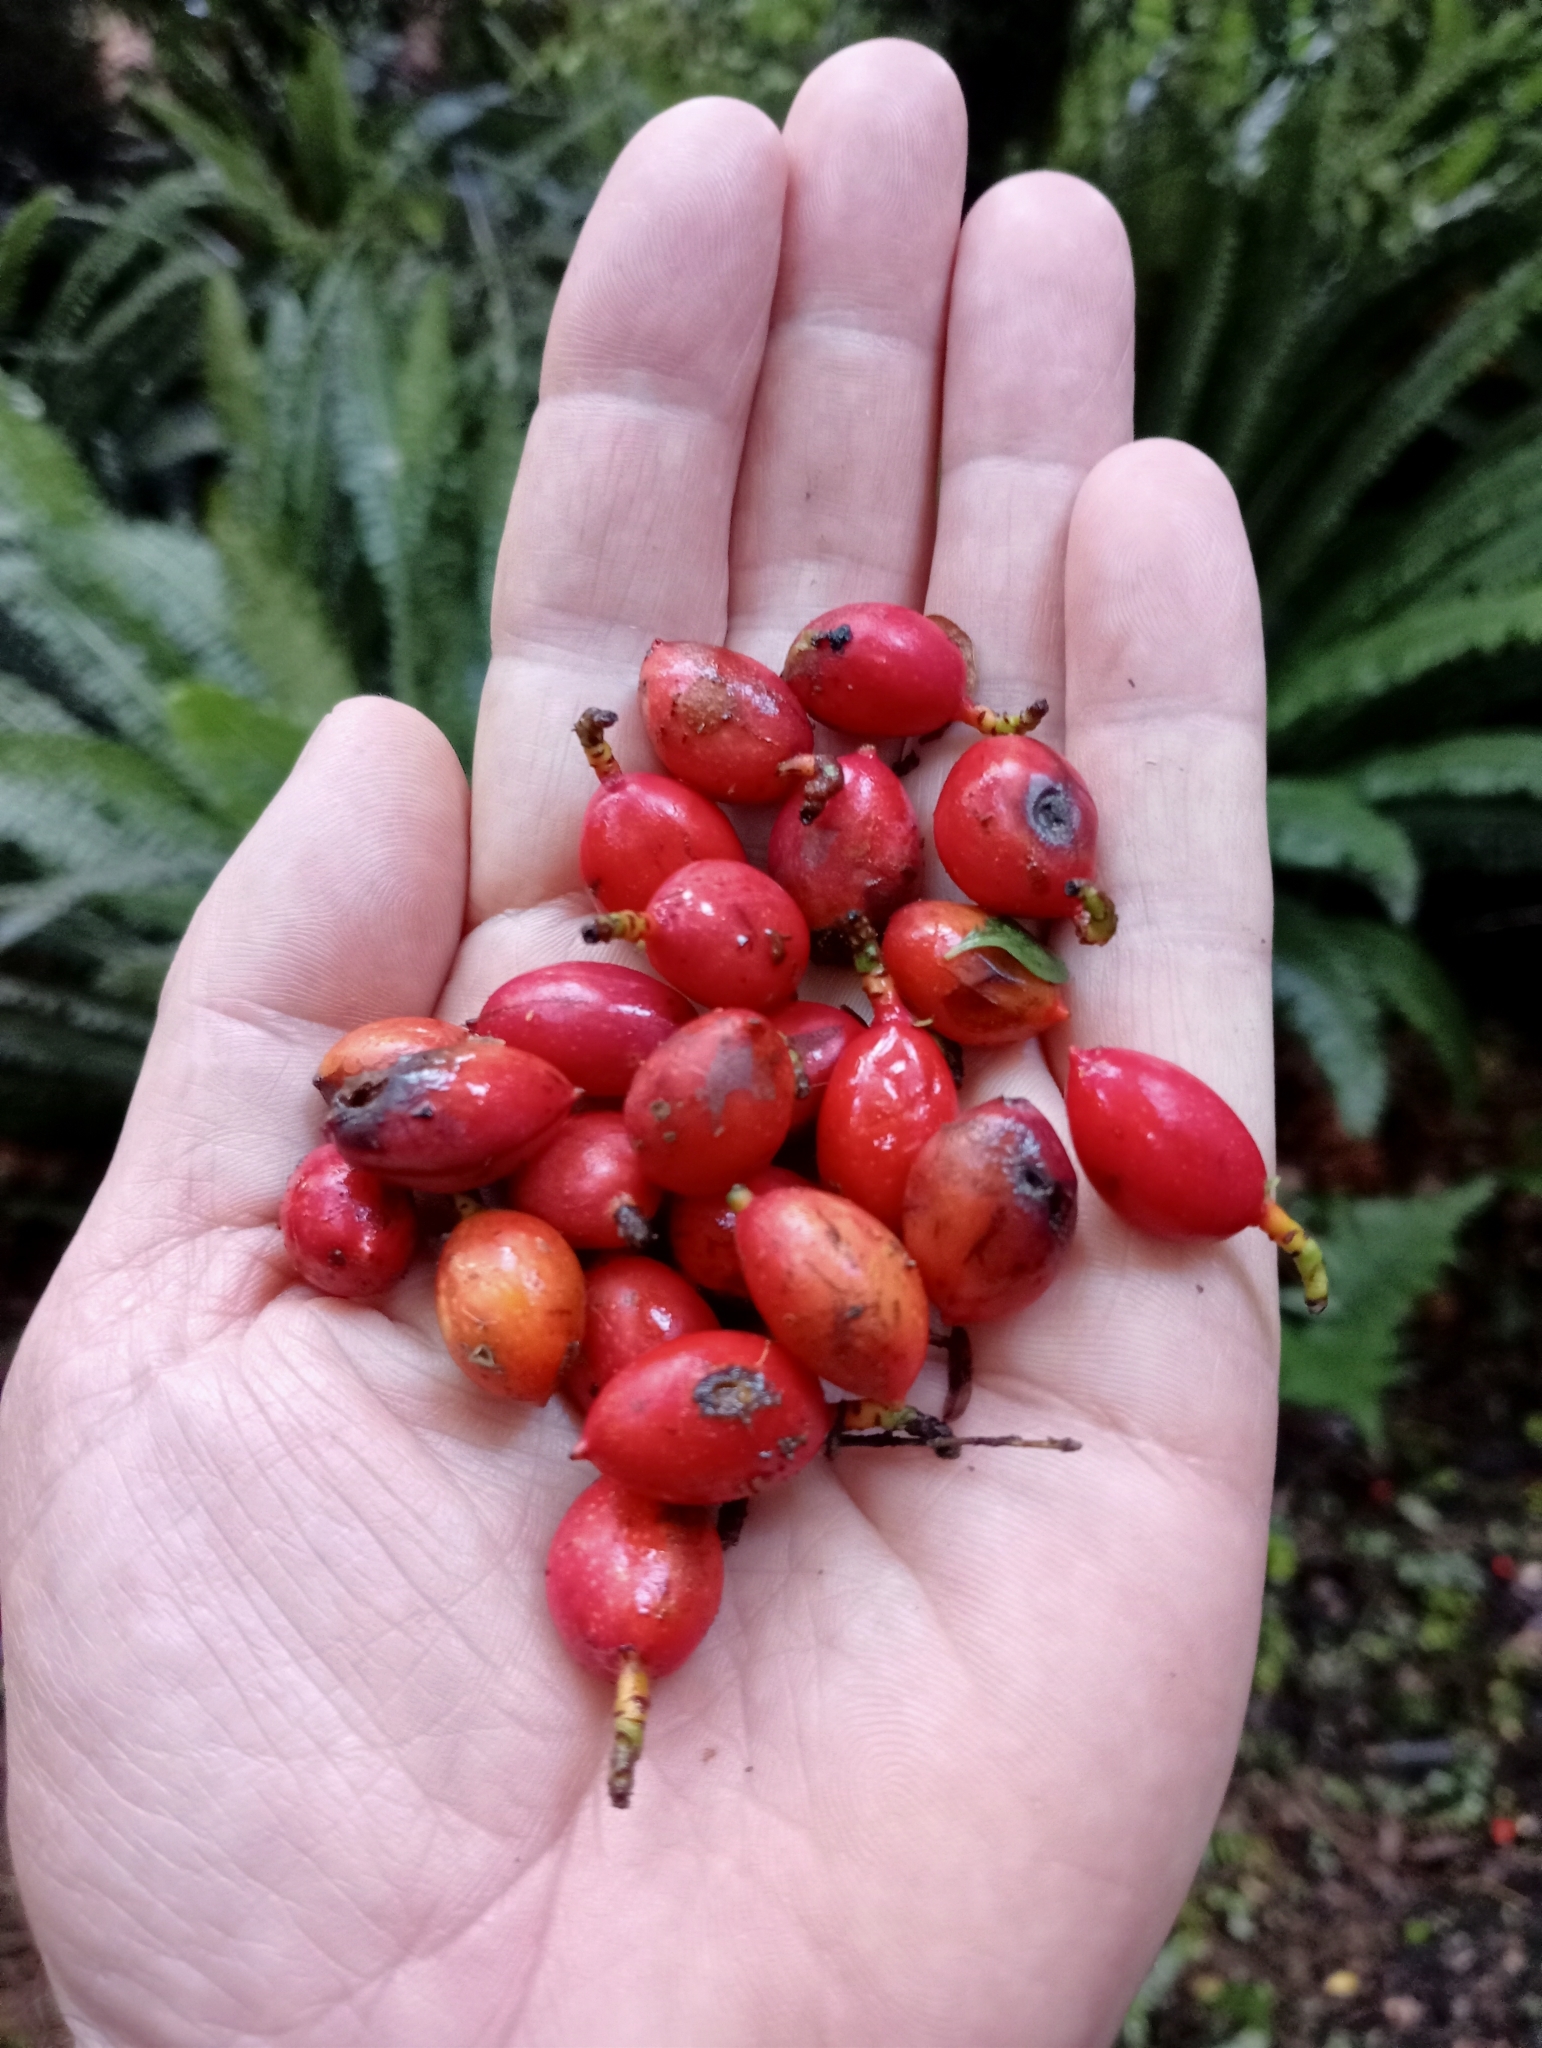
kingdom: Plantae
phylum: Tracheophyta
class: Pinopsida
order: Pinales
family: Podocarpaceae
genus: Prumnopitys
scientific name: Prumnopitys ferruginea
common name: Brown pine
